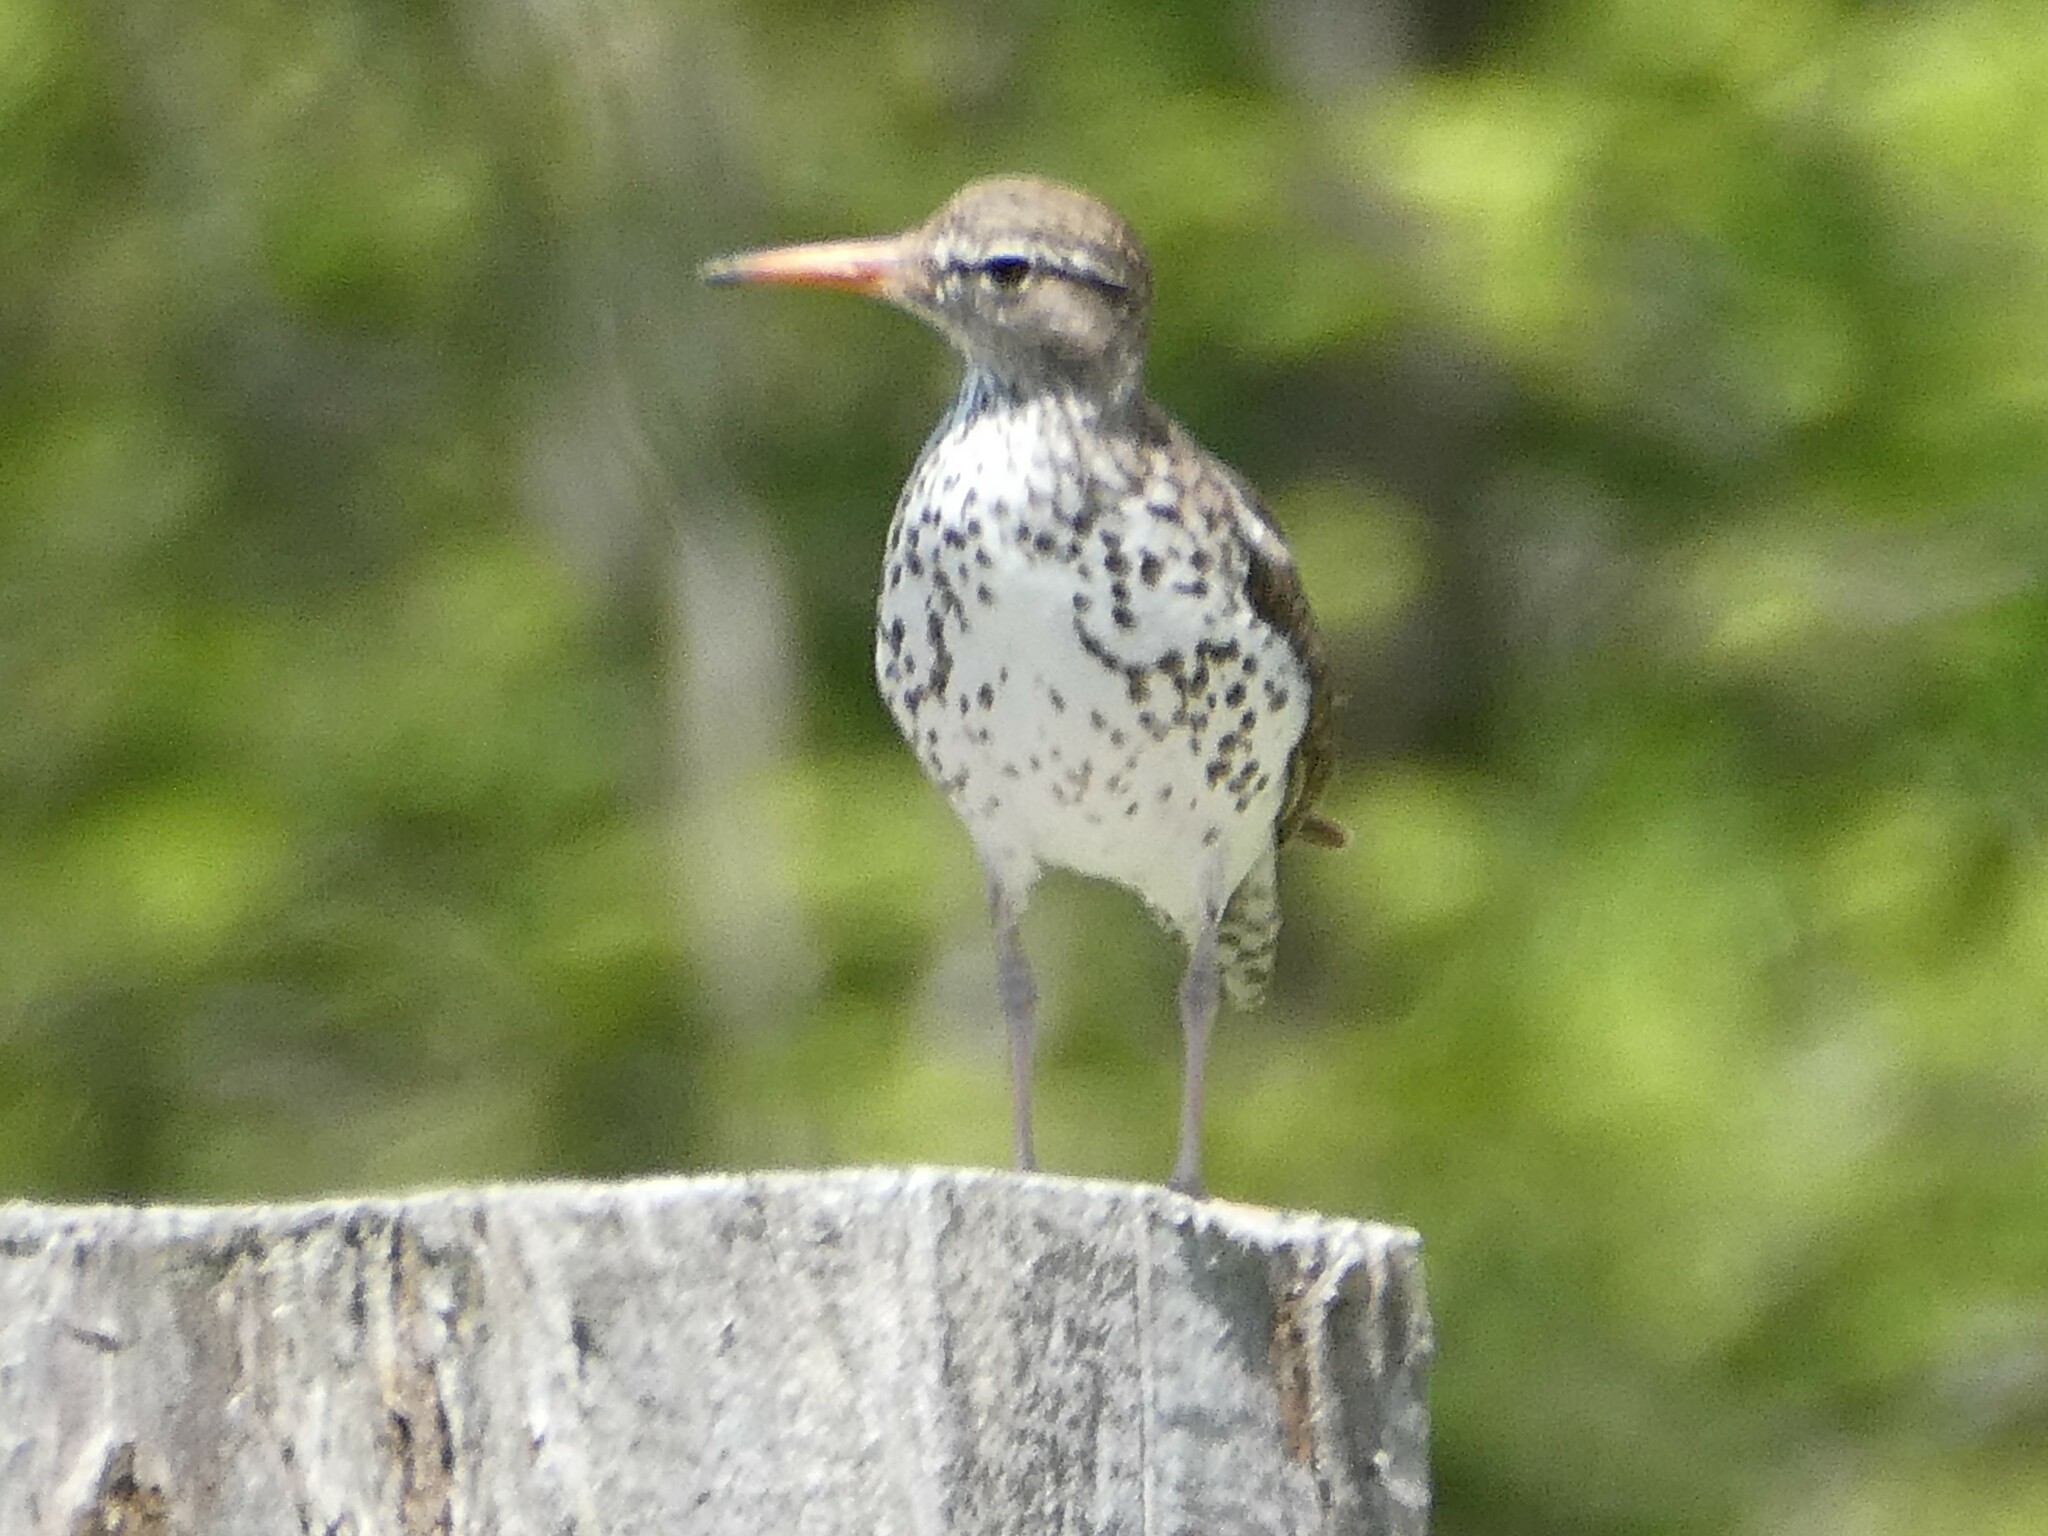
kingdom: Animalia
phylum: Chordata
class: Aves
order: Charadriiformes
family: Scolopacidae
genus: Actitis
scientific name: Actitis macularius
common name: Spotted sandpiper
